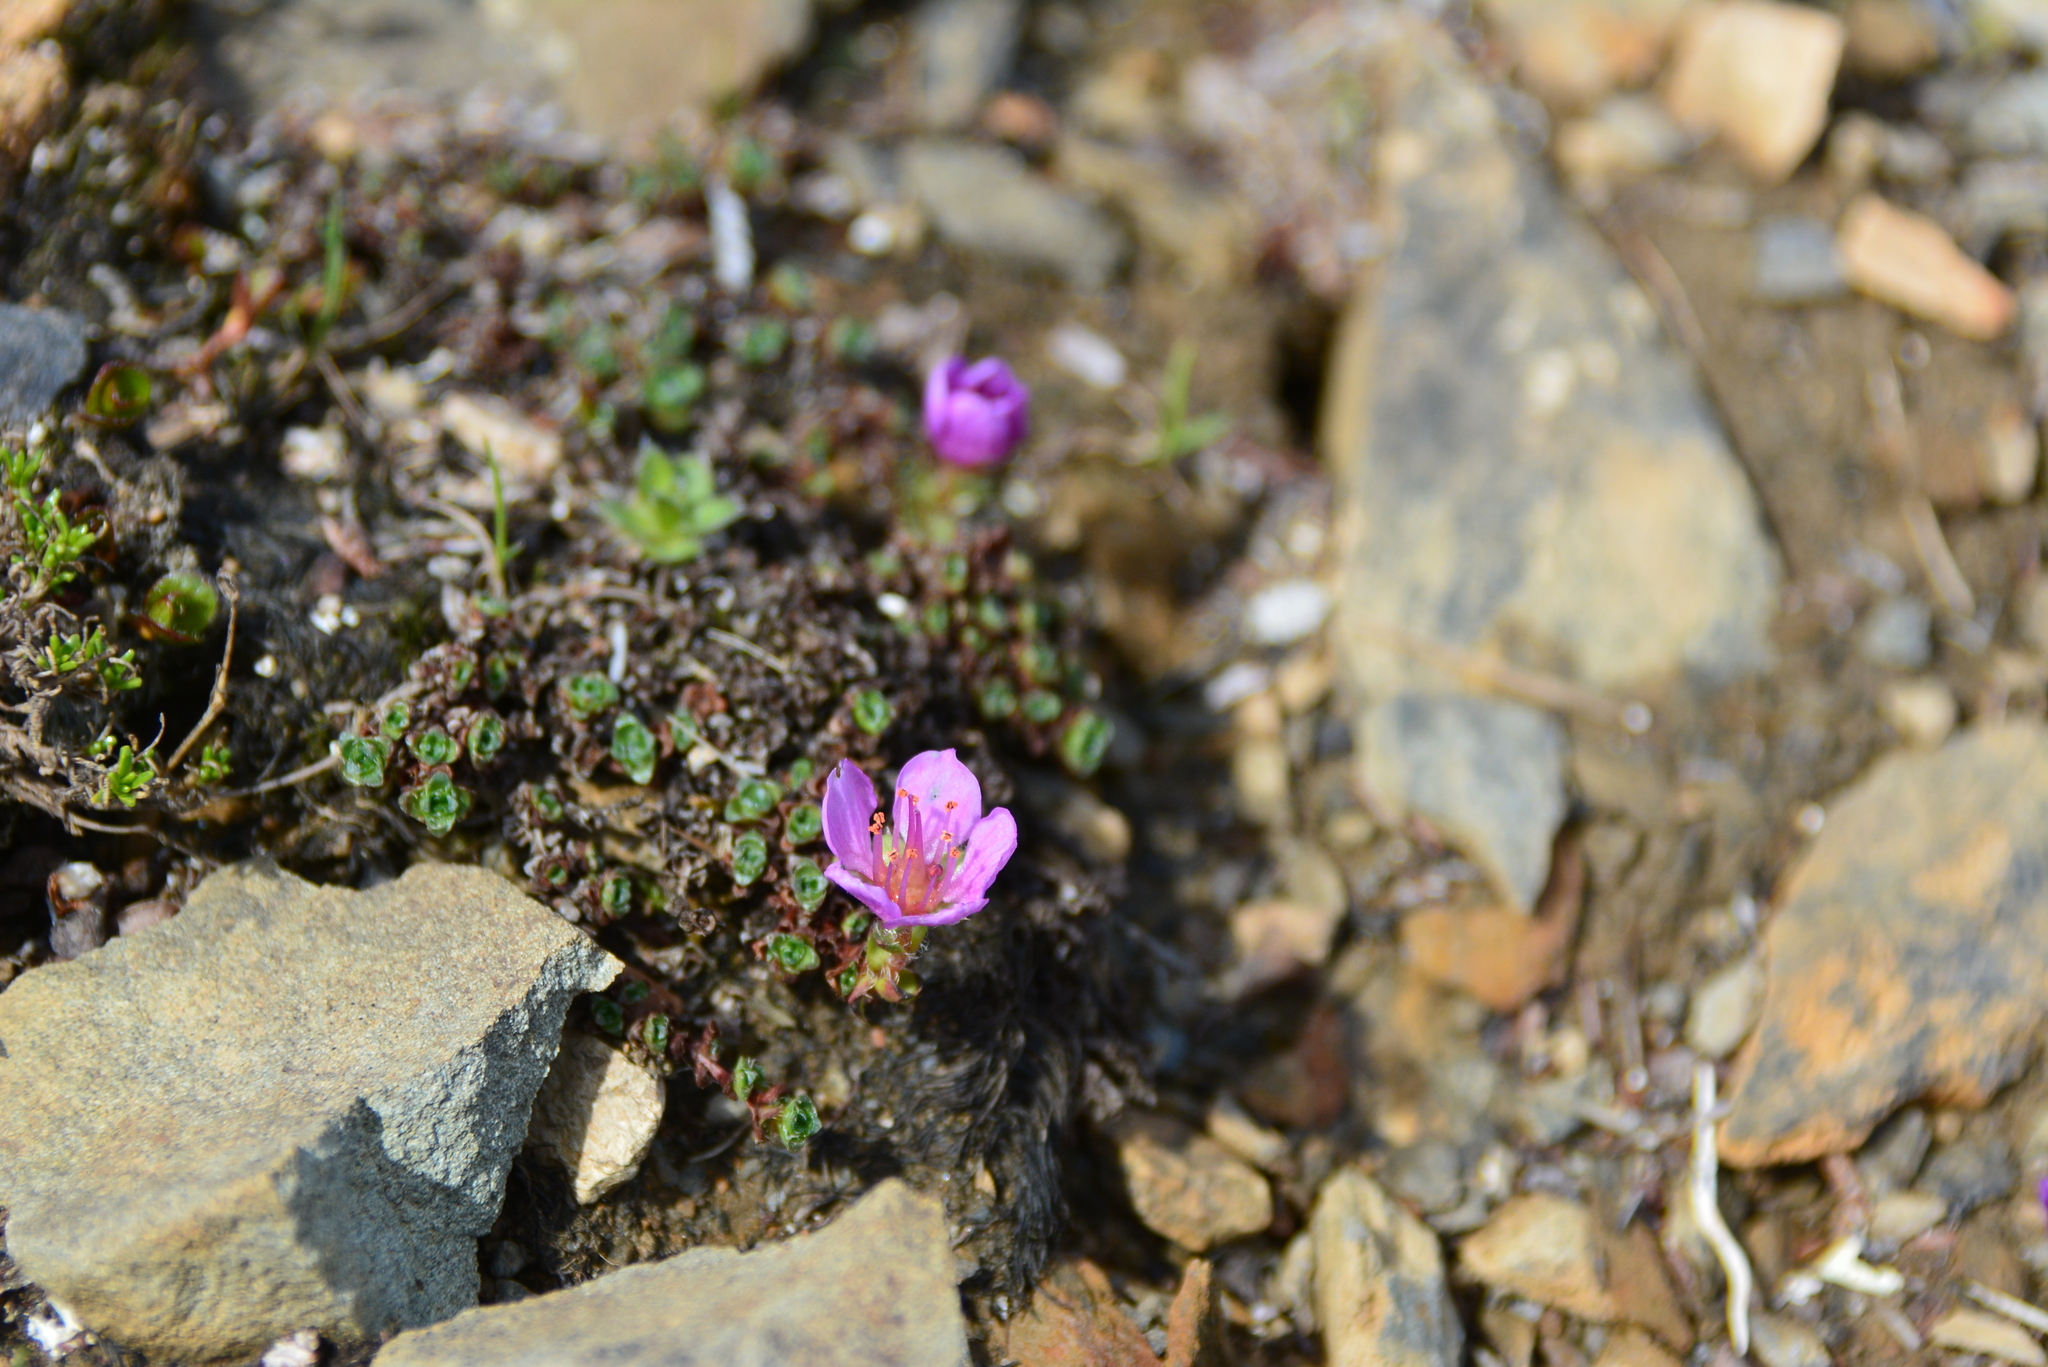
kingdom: Plantae
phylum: Tracheophyta
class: Magnoliopsida
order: Saxifragales
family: Saxifragaceae
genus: Saxifraga
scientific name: Saxifraga oppositifolia
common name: Purple saxifrage
